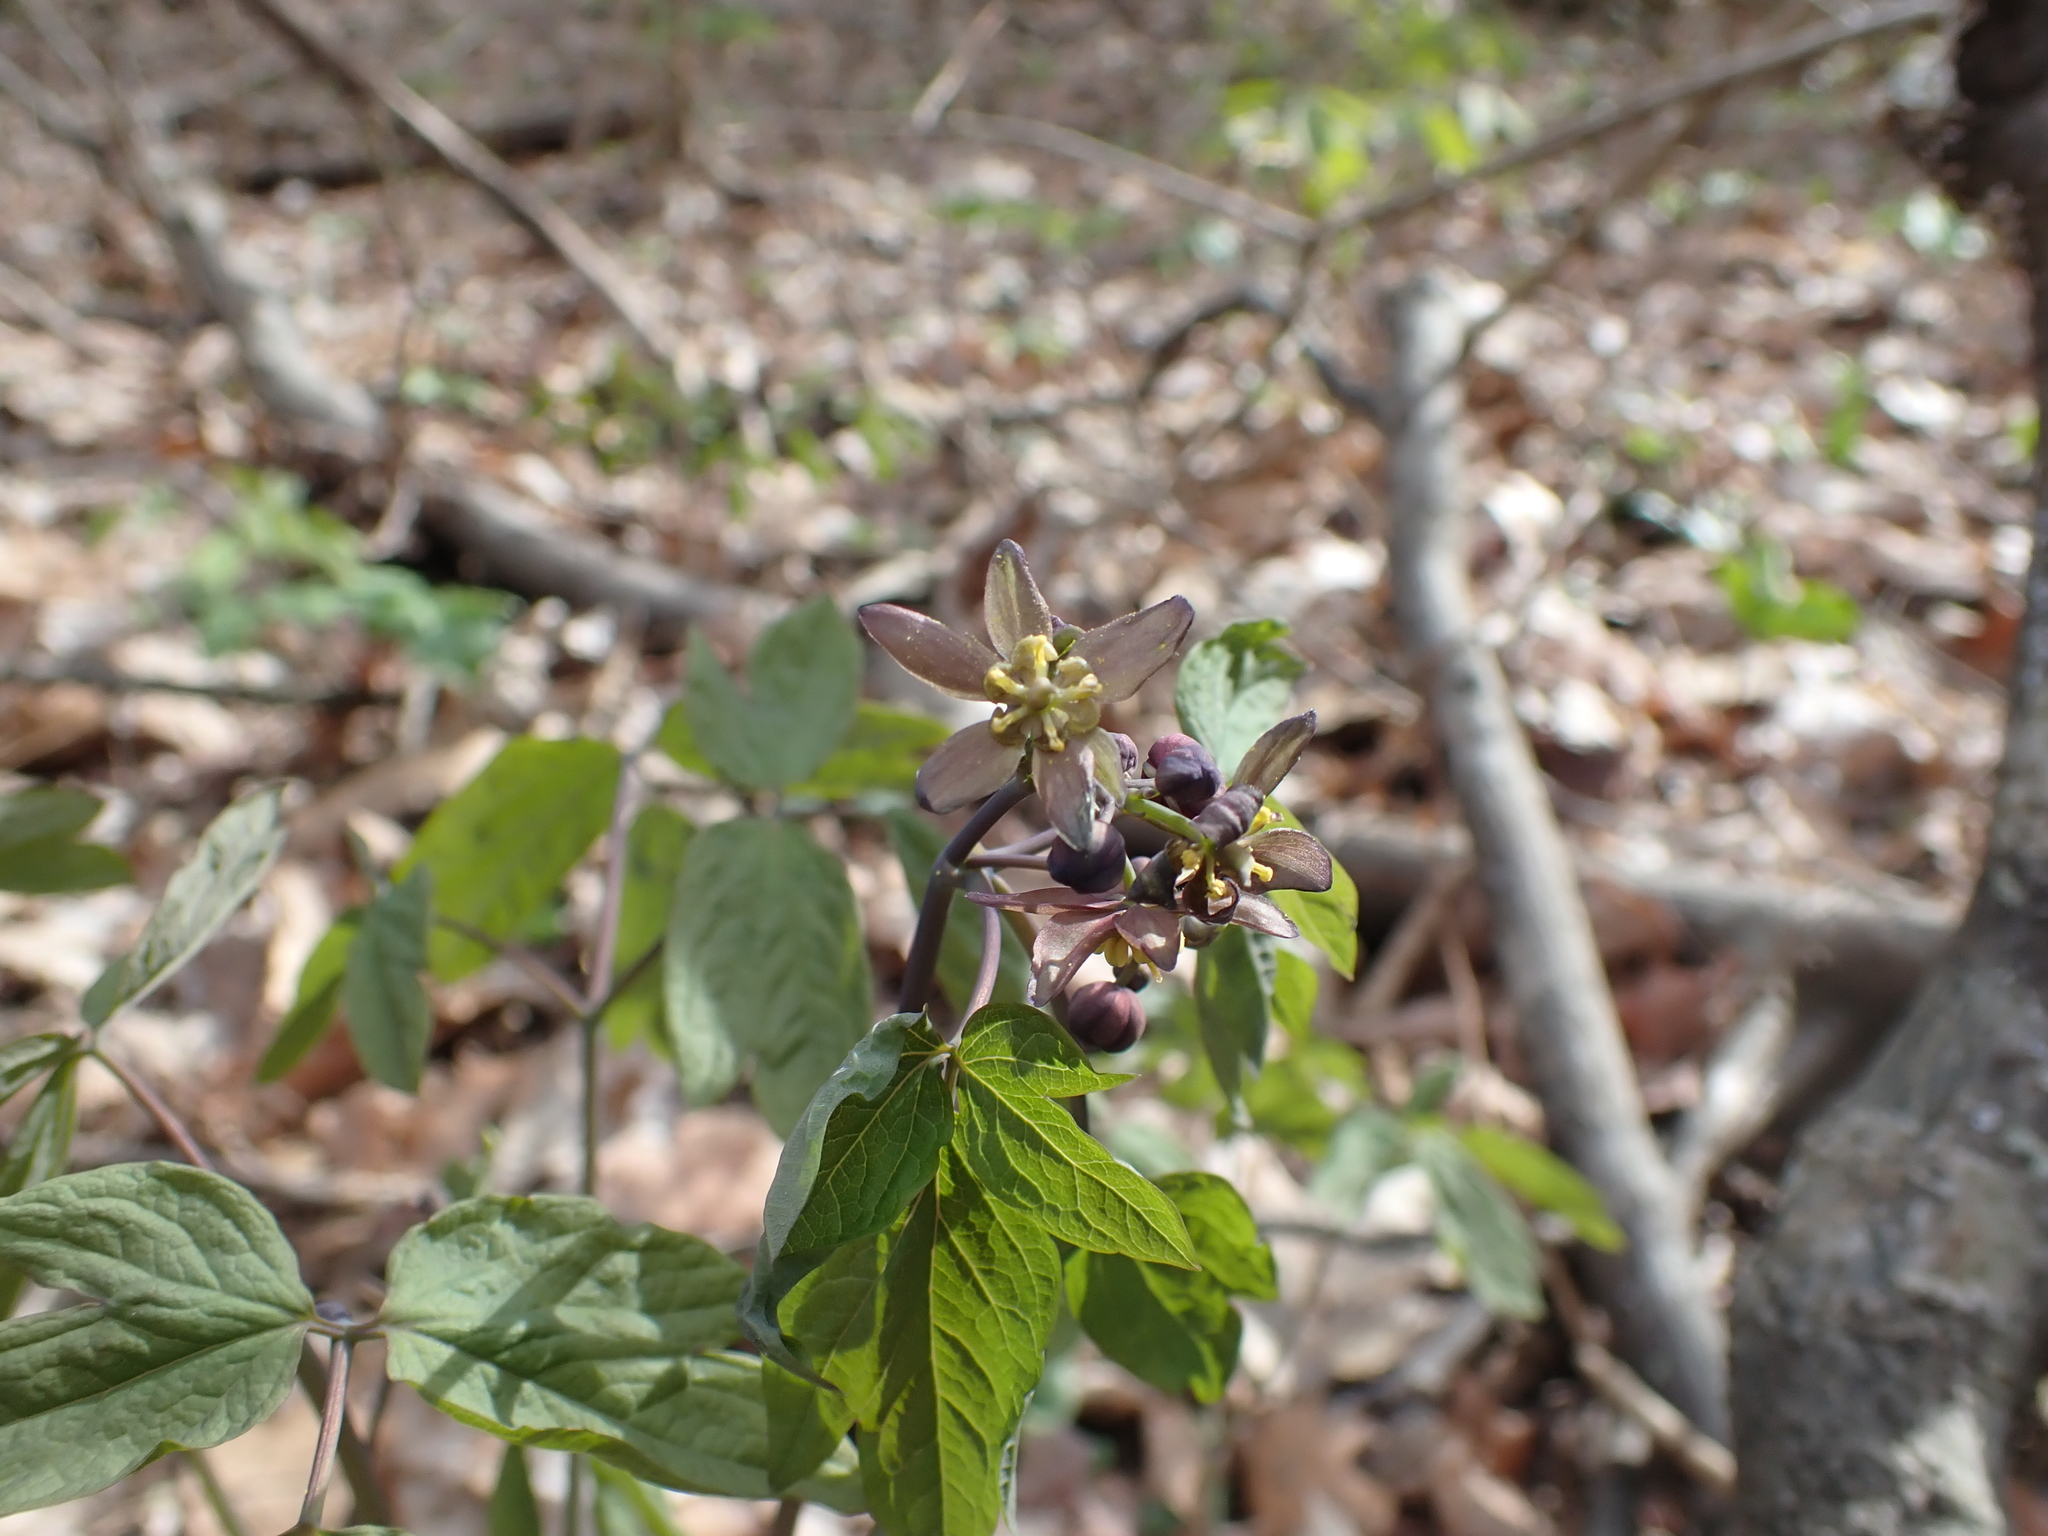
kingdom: Plantae
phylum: Tracheophyta
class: Magnoliopsida
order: Ranunculales
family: Berberidaceae
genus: Caulophyllum
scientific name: Caulophyllum giganteum
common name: Blue cohosh
